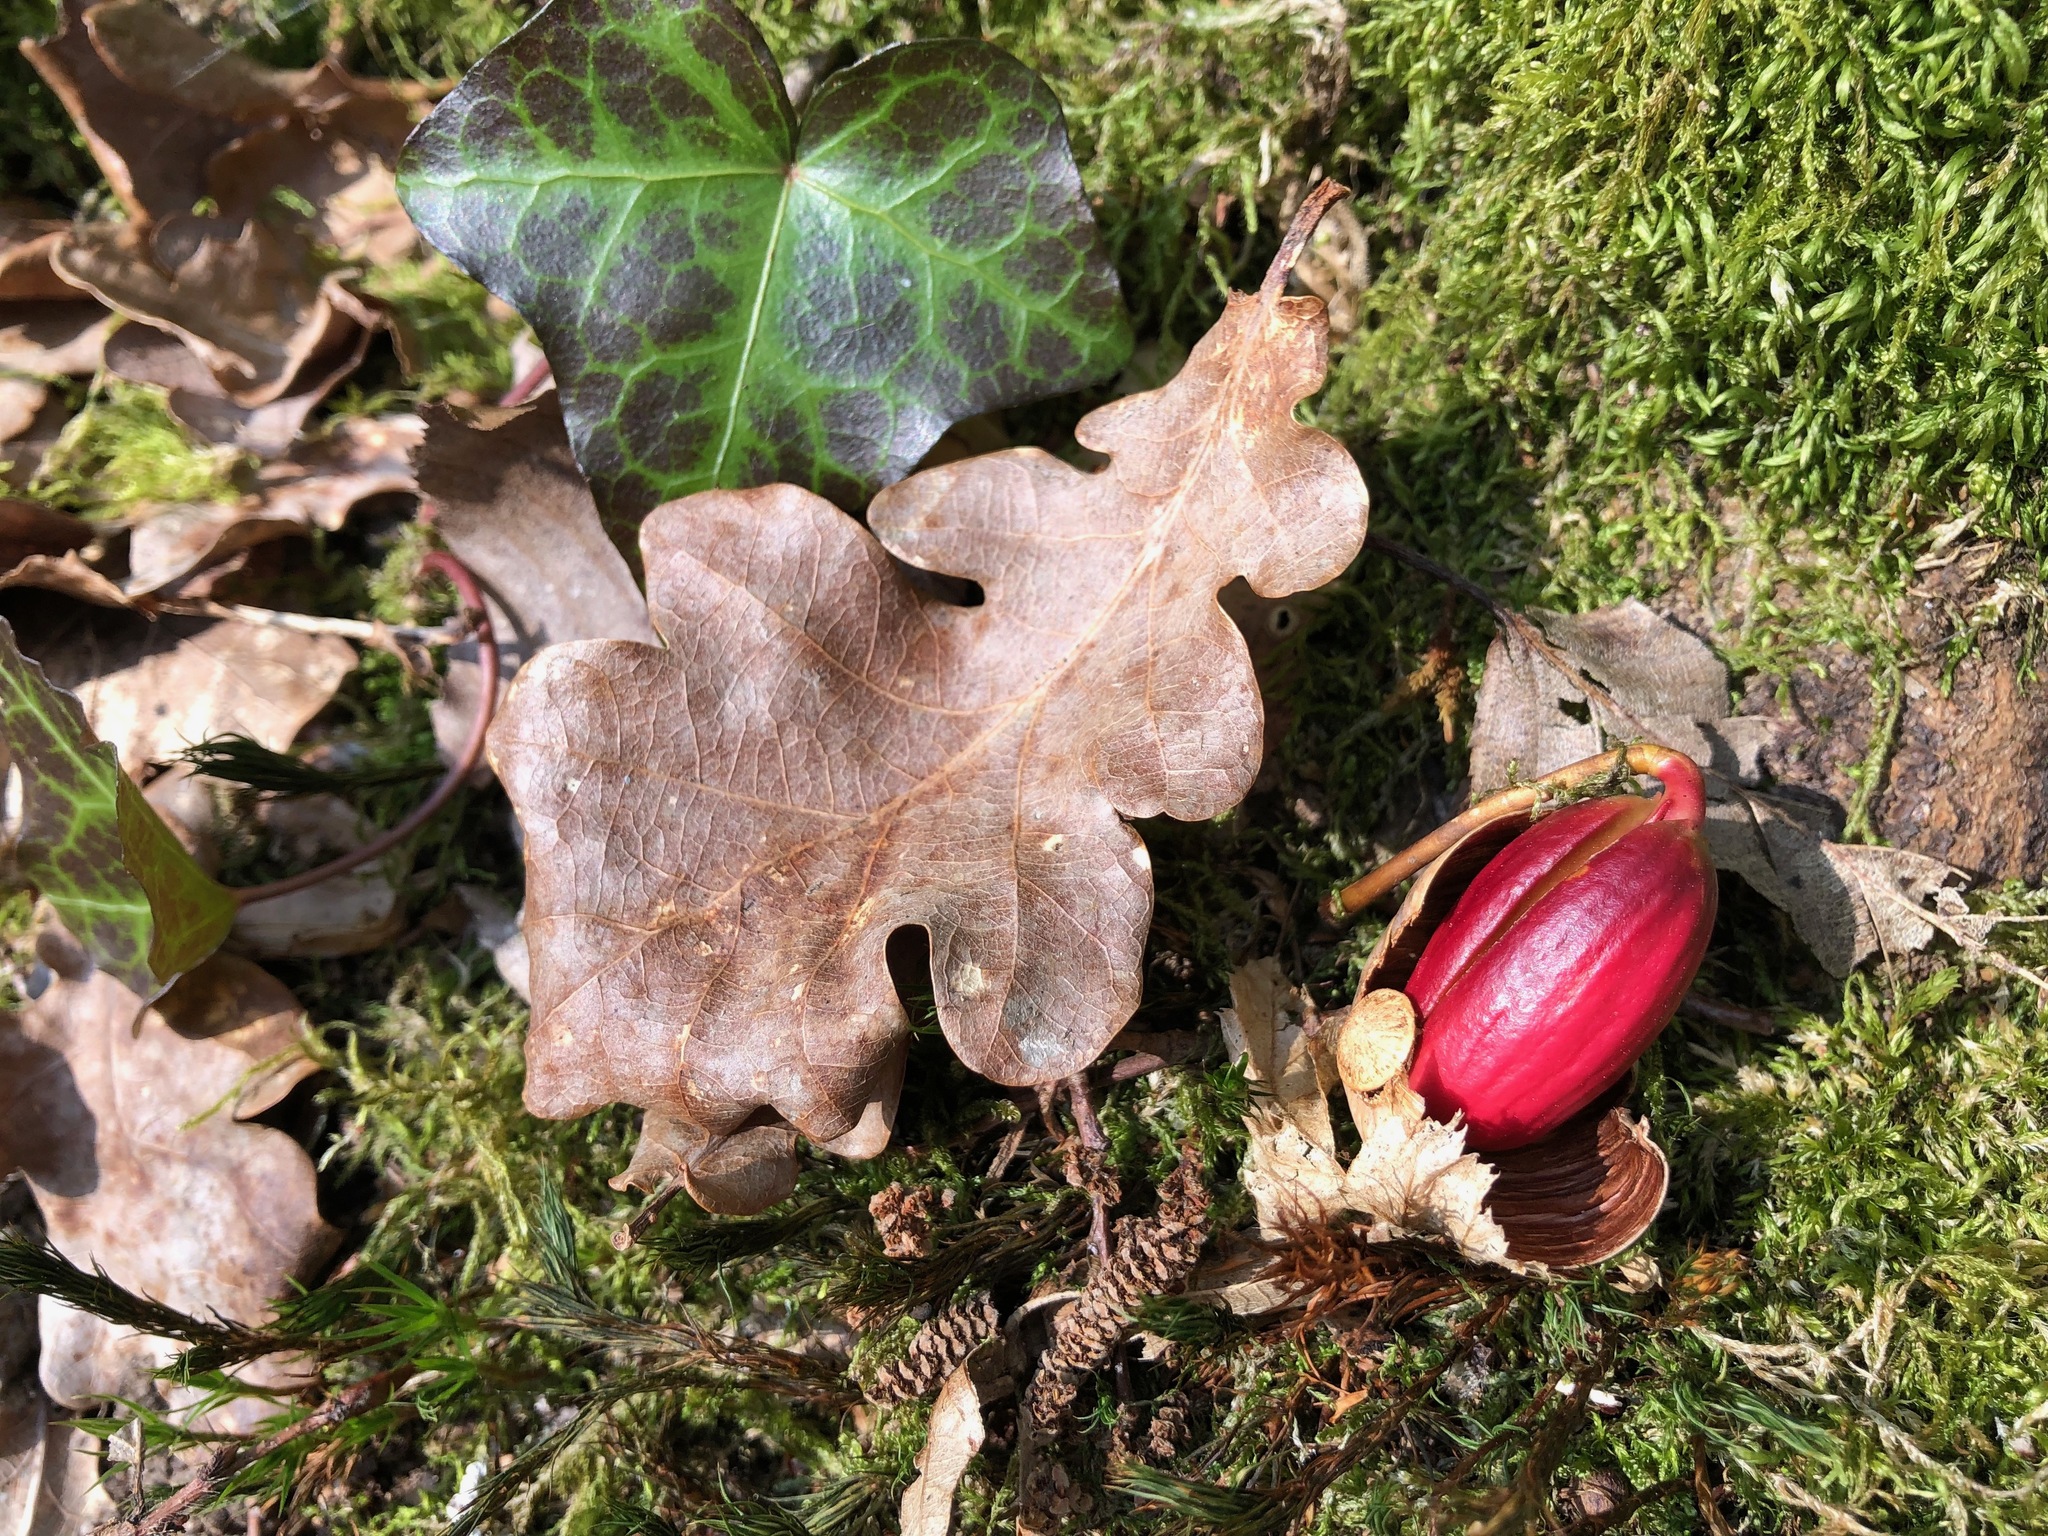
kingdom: Plantae
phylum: Tracheophyta
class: Magnoliopsida
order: Fagales
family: Fagaceae
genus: Quercus
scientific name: Quercus robur
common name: Pedunculate oak
